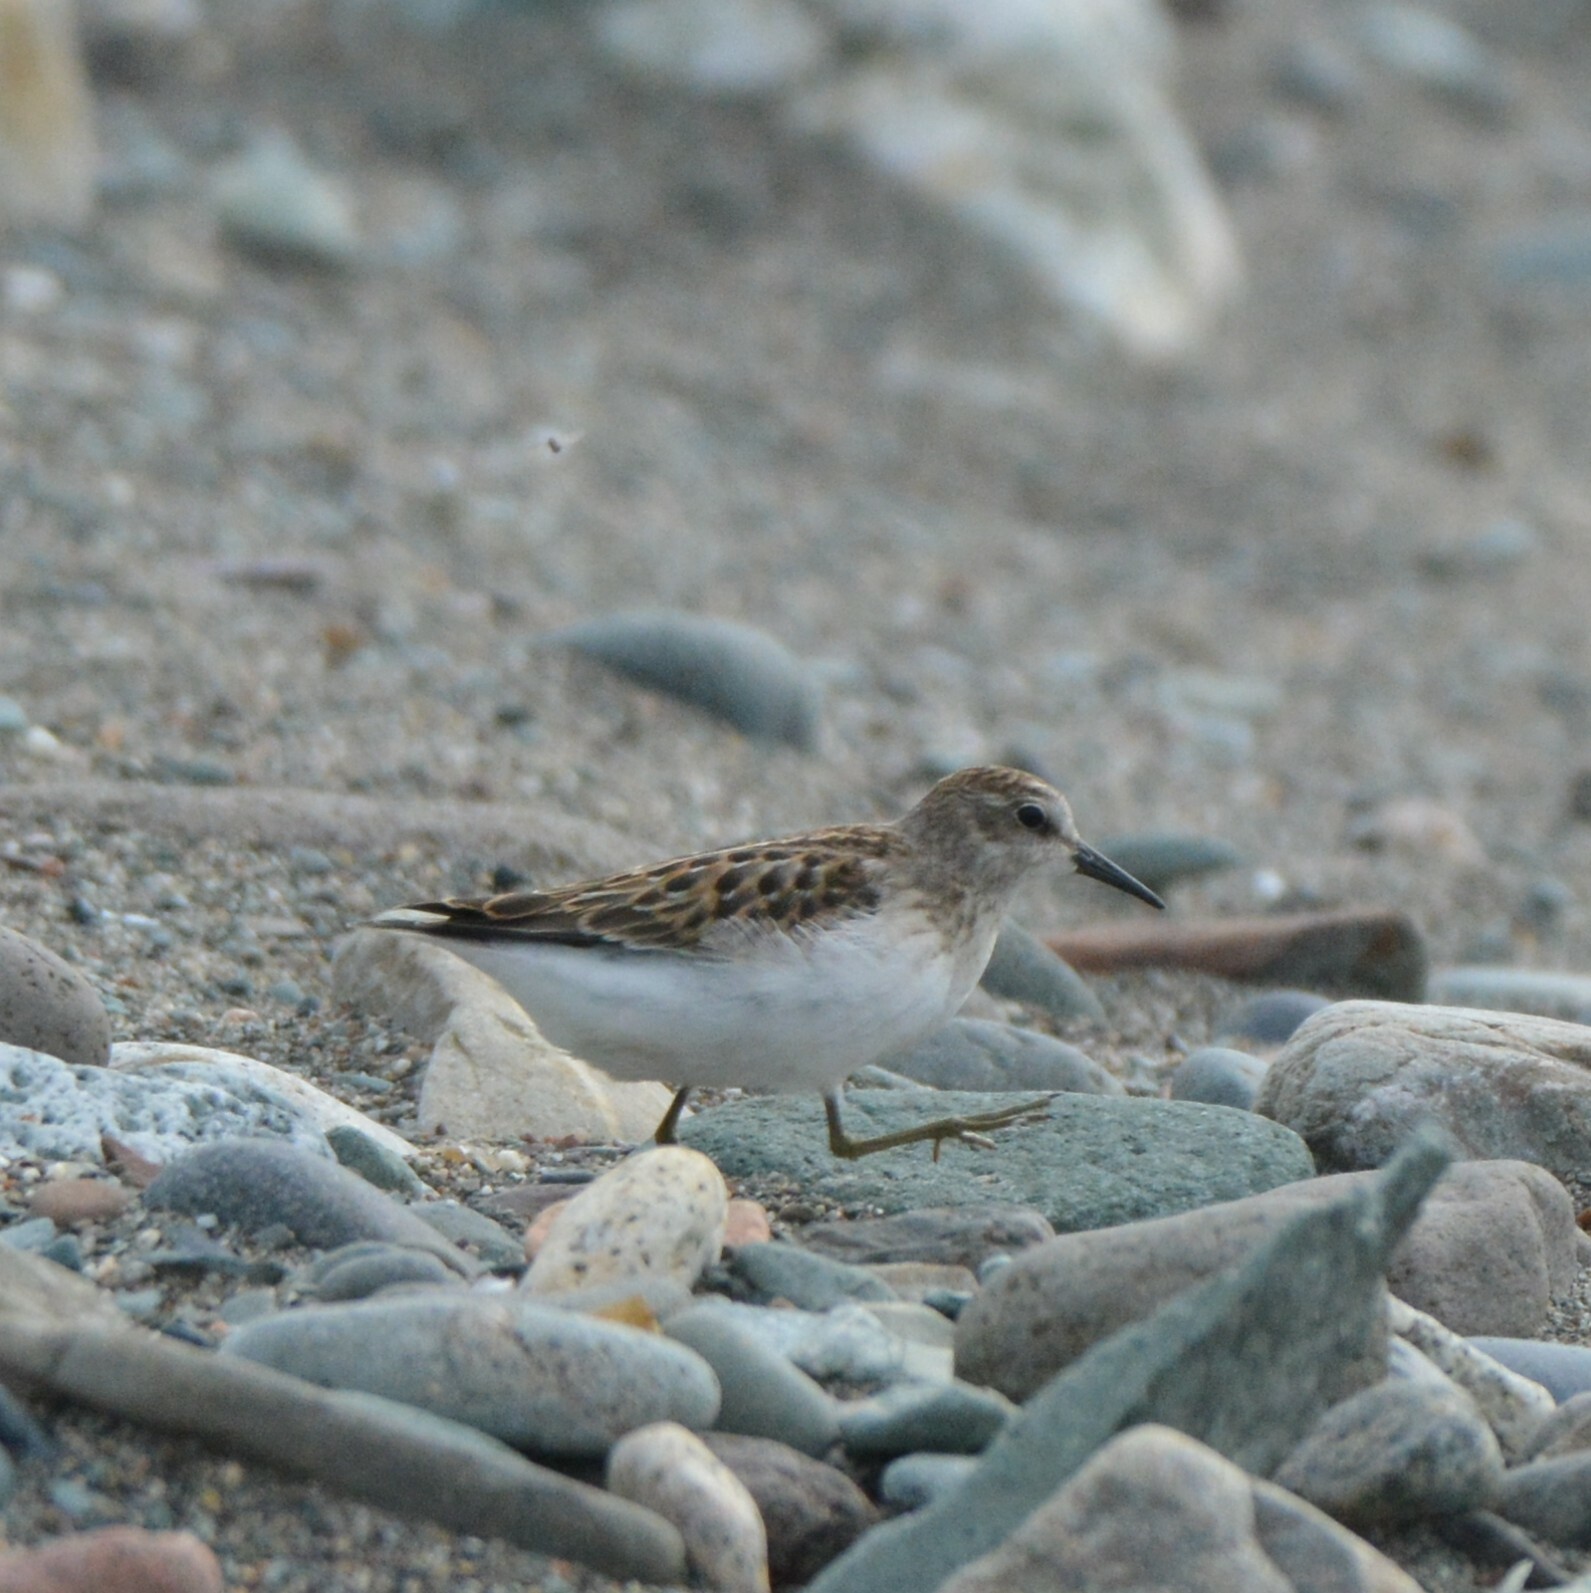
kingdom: Animalia
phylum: Chordata
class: Aves
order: Charadriiformes
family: Scolopacidae
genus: Calidris
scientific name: Calidris minutilla
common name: Least sandpiper
